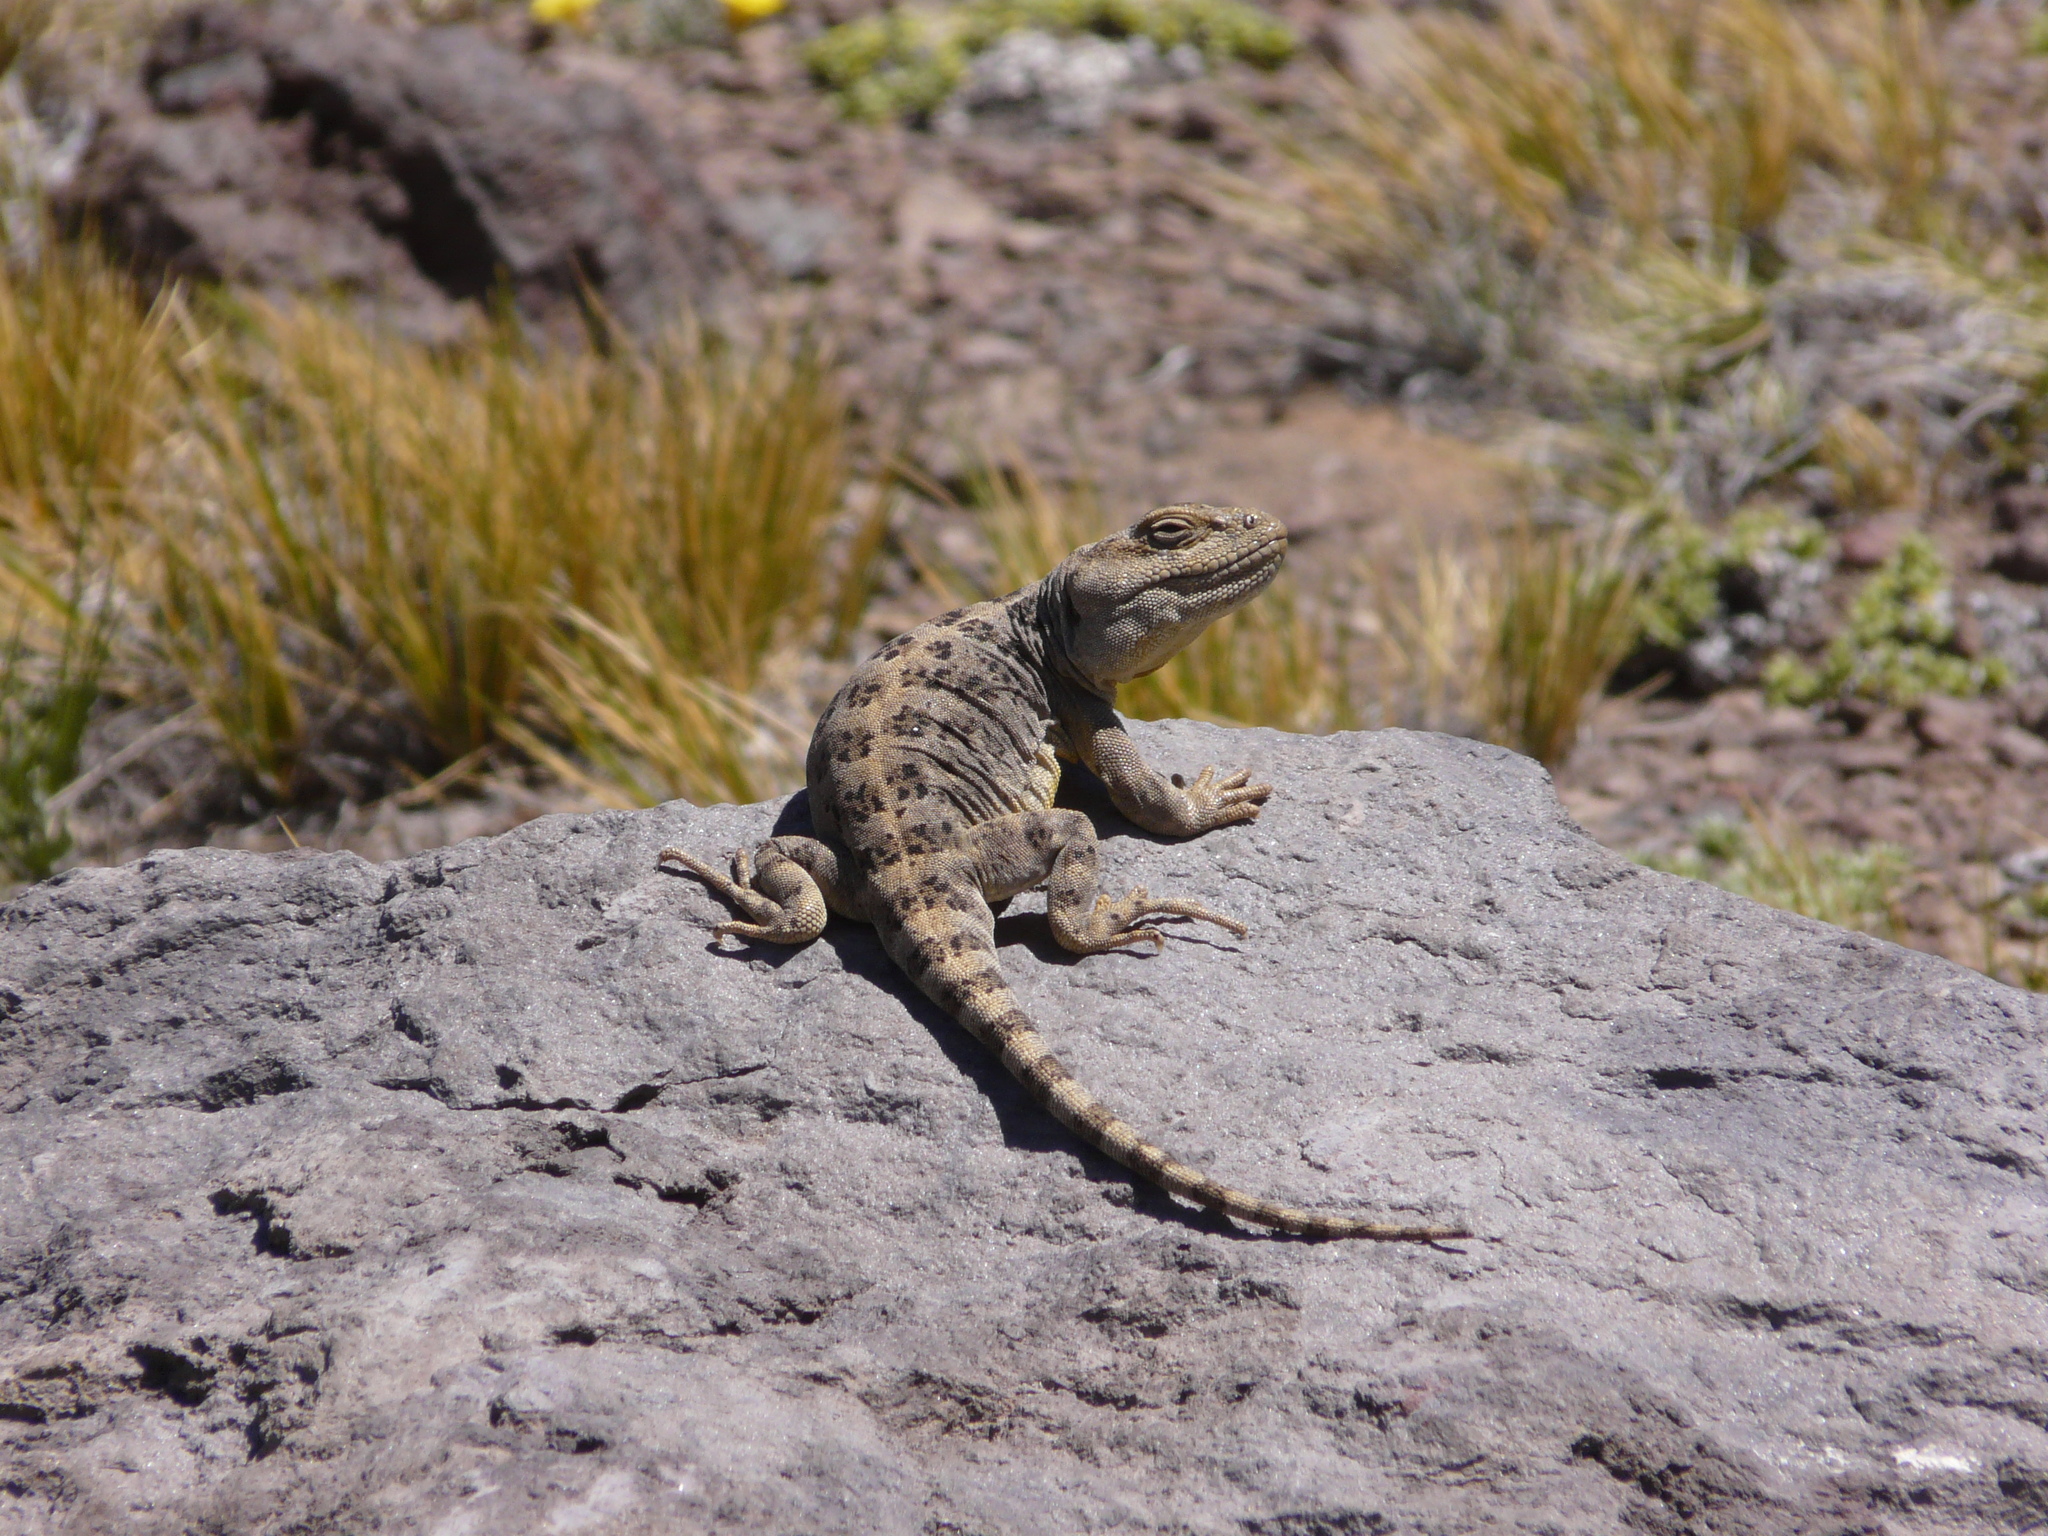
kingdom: Animalia
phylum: Chordata
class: Squamata
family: Leiosauridae
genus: Diplolaemus
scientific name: Diplolaemus leopardinus
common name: Leopard iguana
